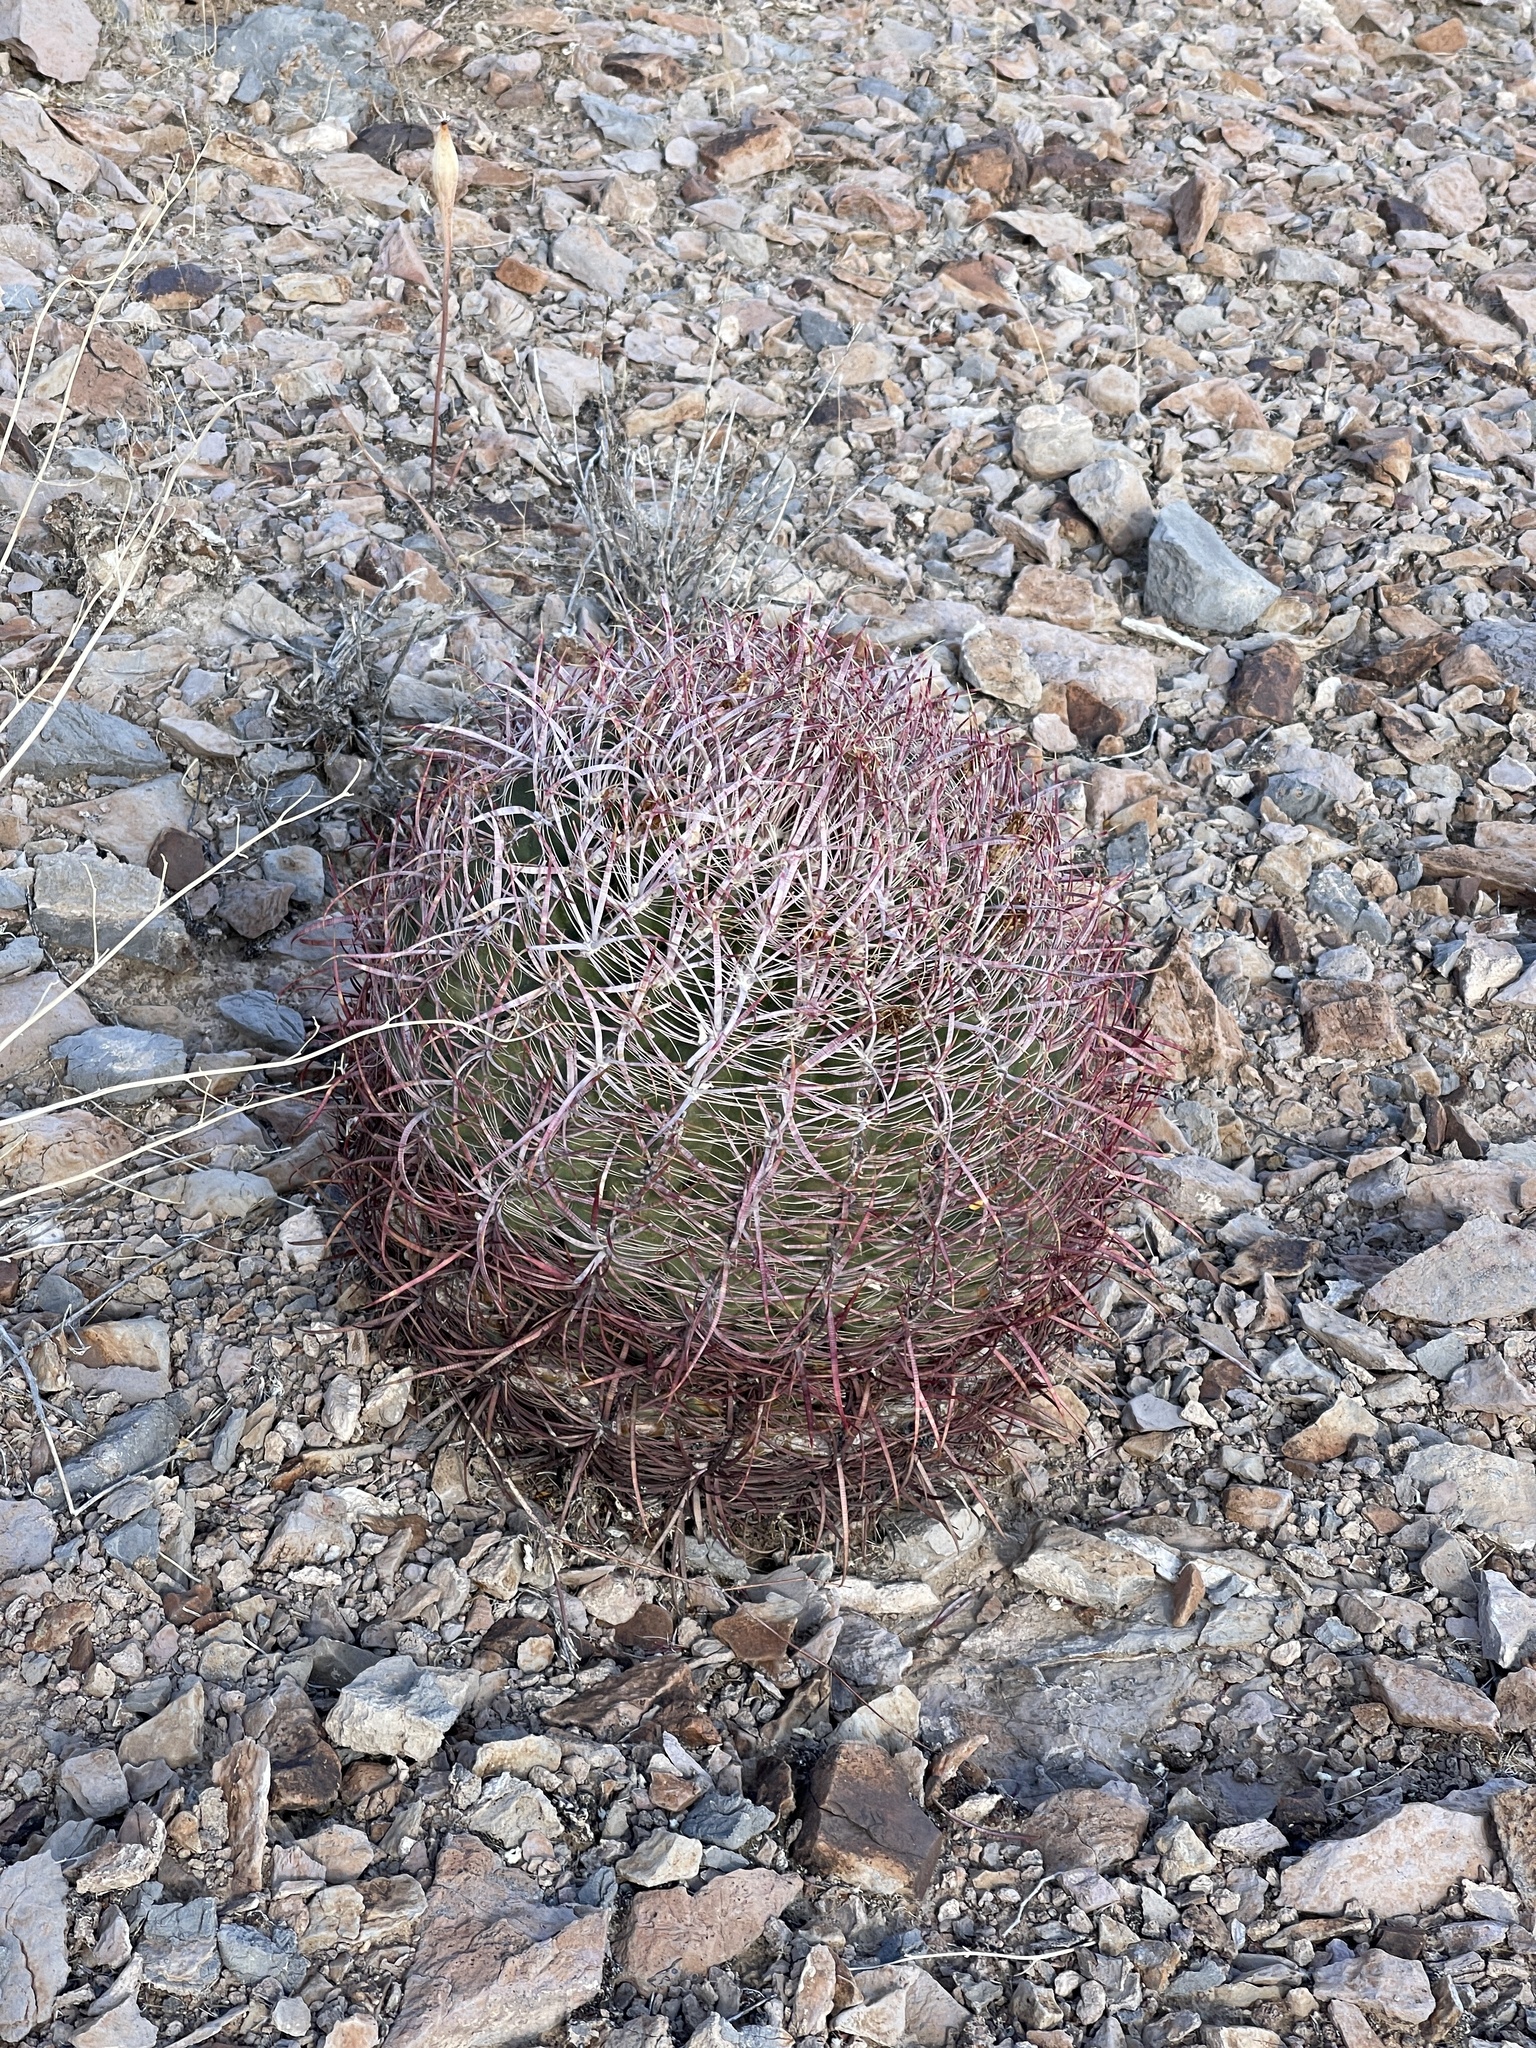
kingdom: Plantae
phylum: Tracheophyta
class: Magnoliopsida
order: Caryophyllales
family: Cactaceae
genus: Ferocactus
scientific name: Ferocactus cylindraceus
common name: California barrel cactus
